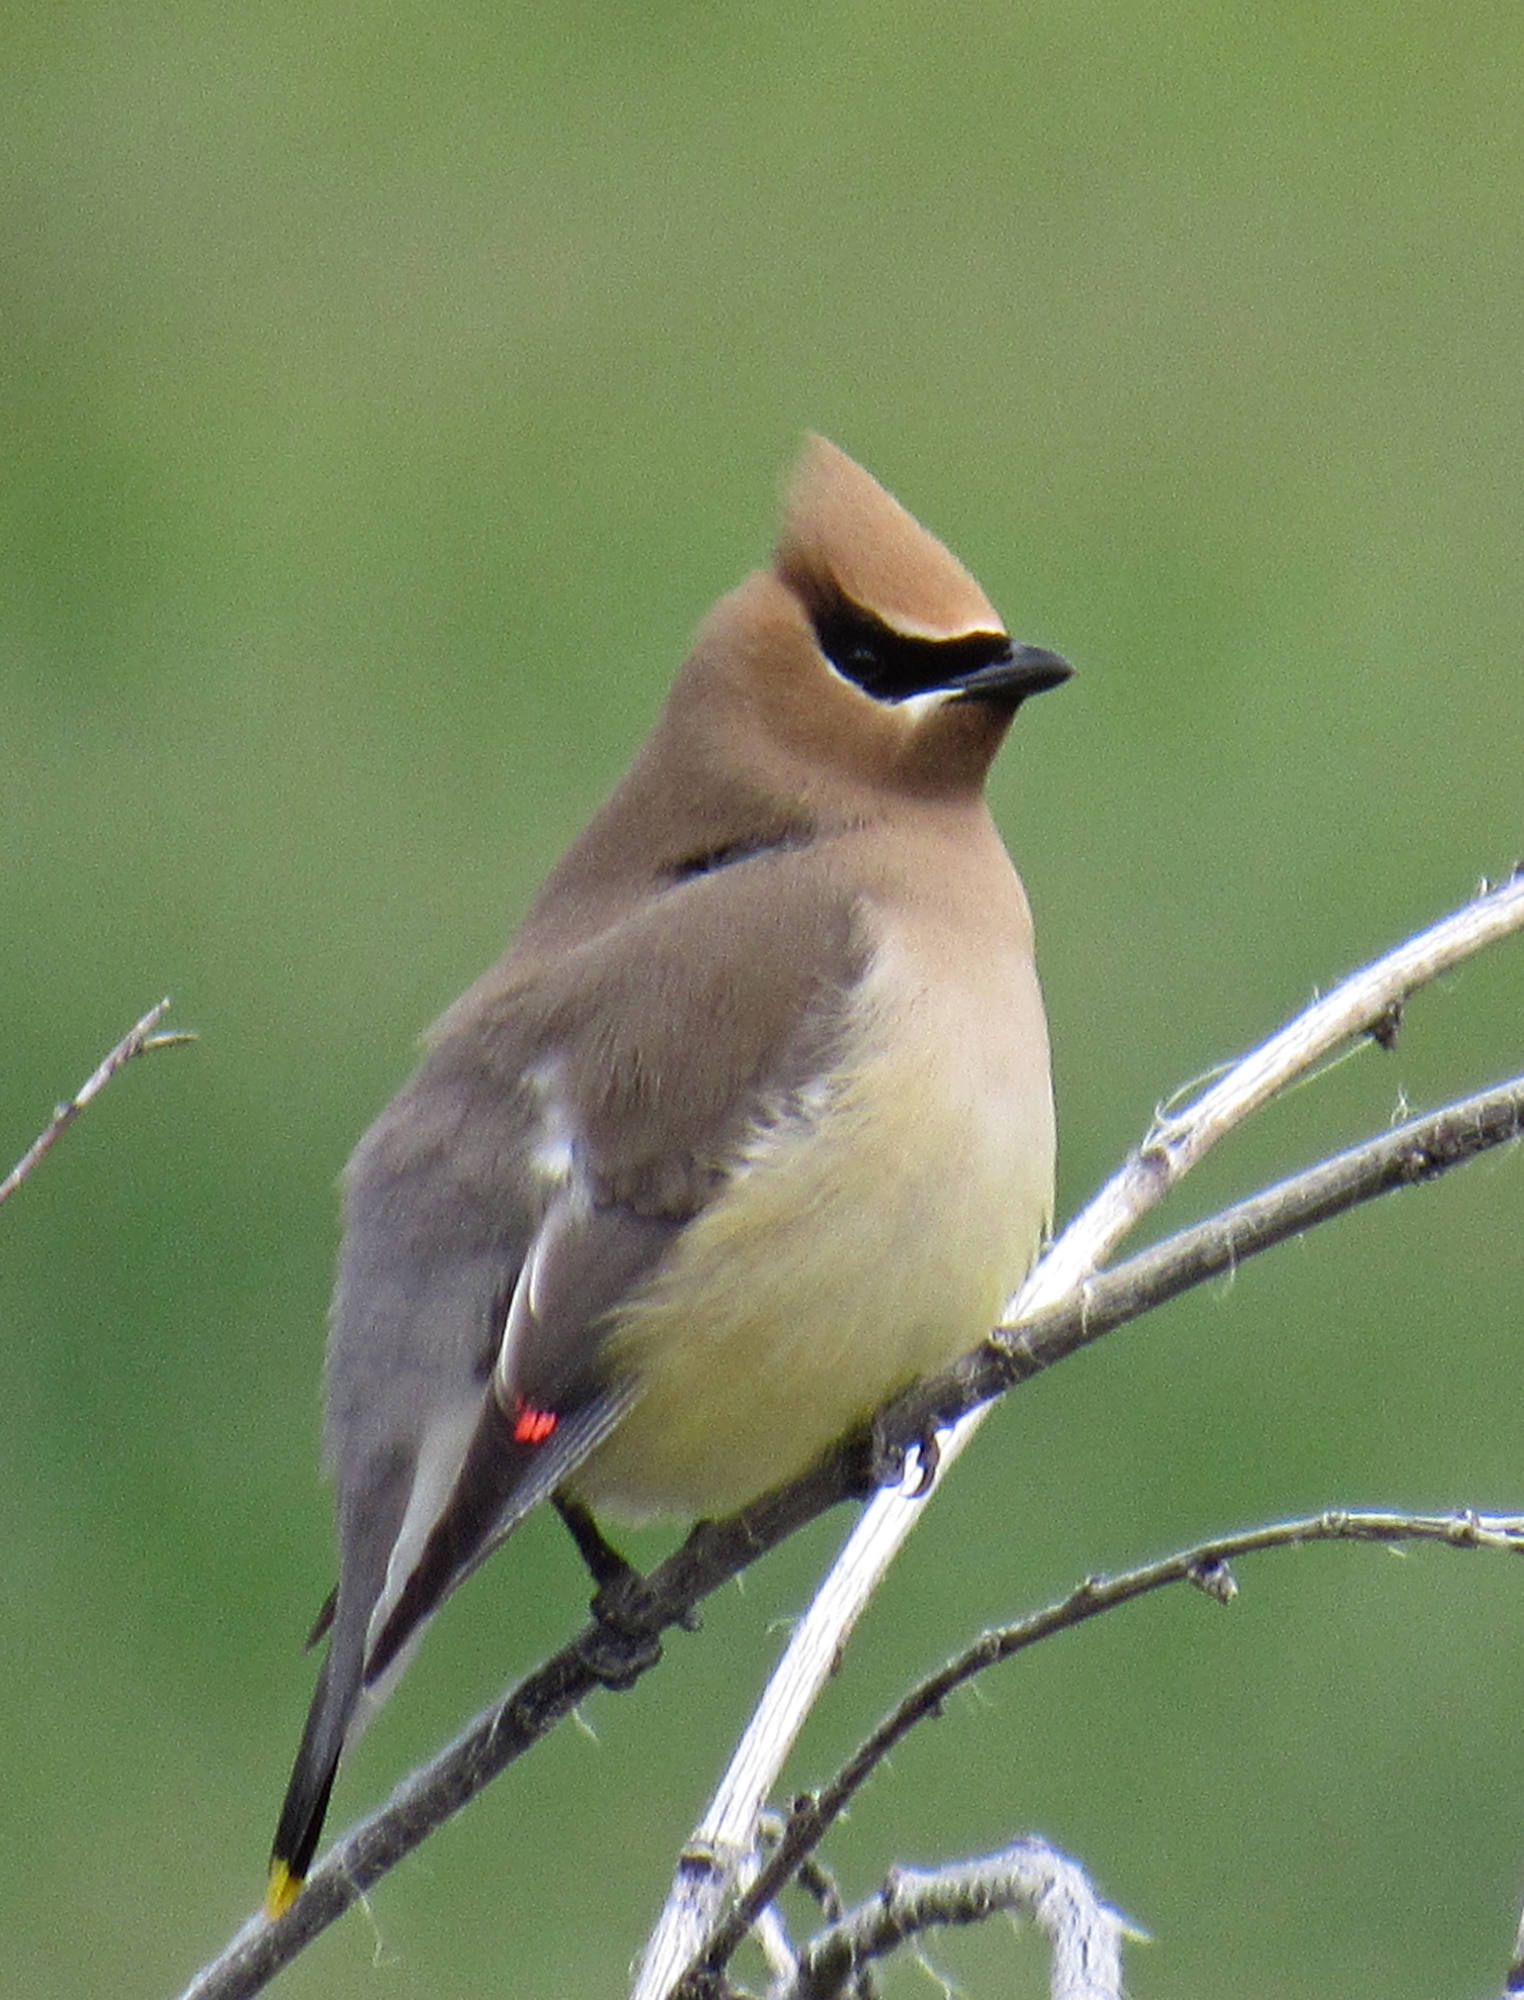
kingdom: Animalia
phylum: Chordata
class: Aves
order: Passeriformes
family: Bombycillidae
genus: Bombycilla
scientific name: Bombycilla cedrorum
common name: Cedar waxwing
